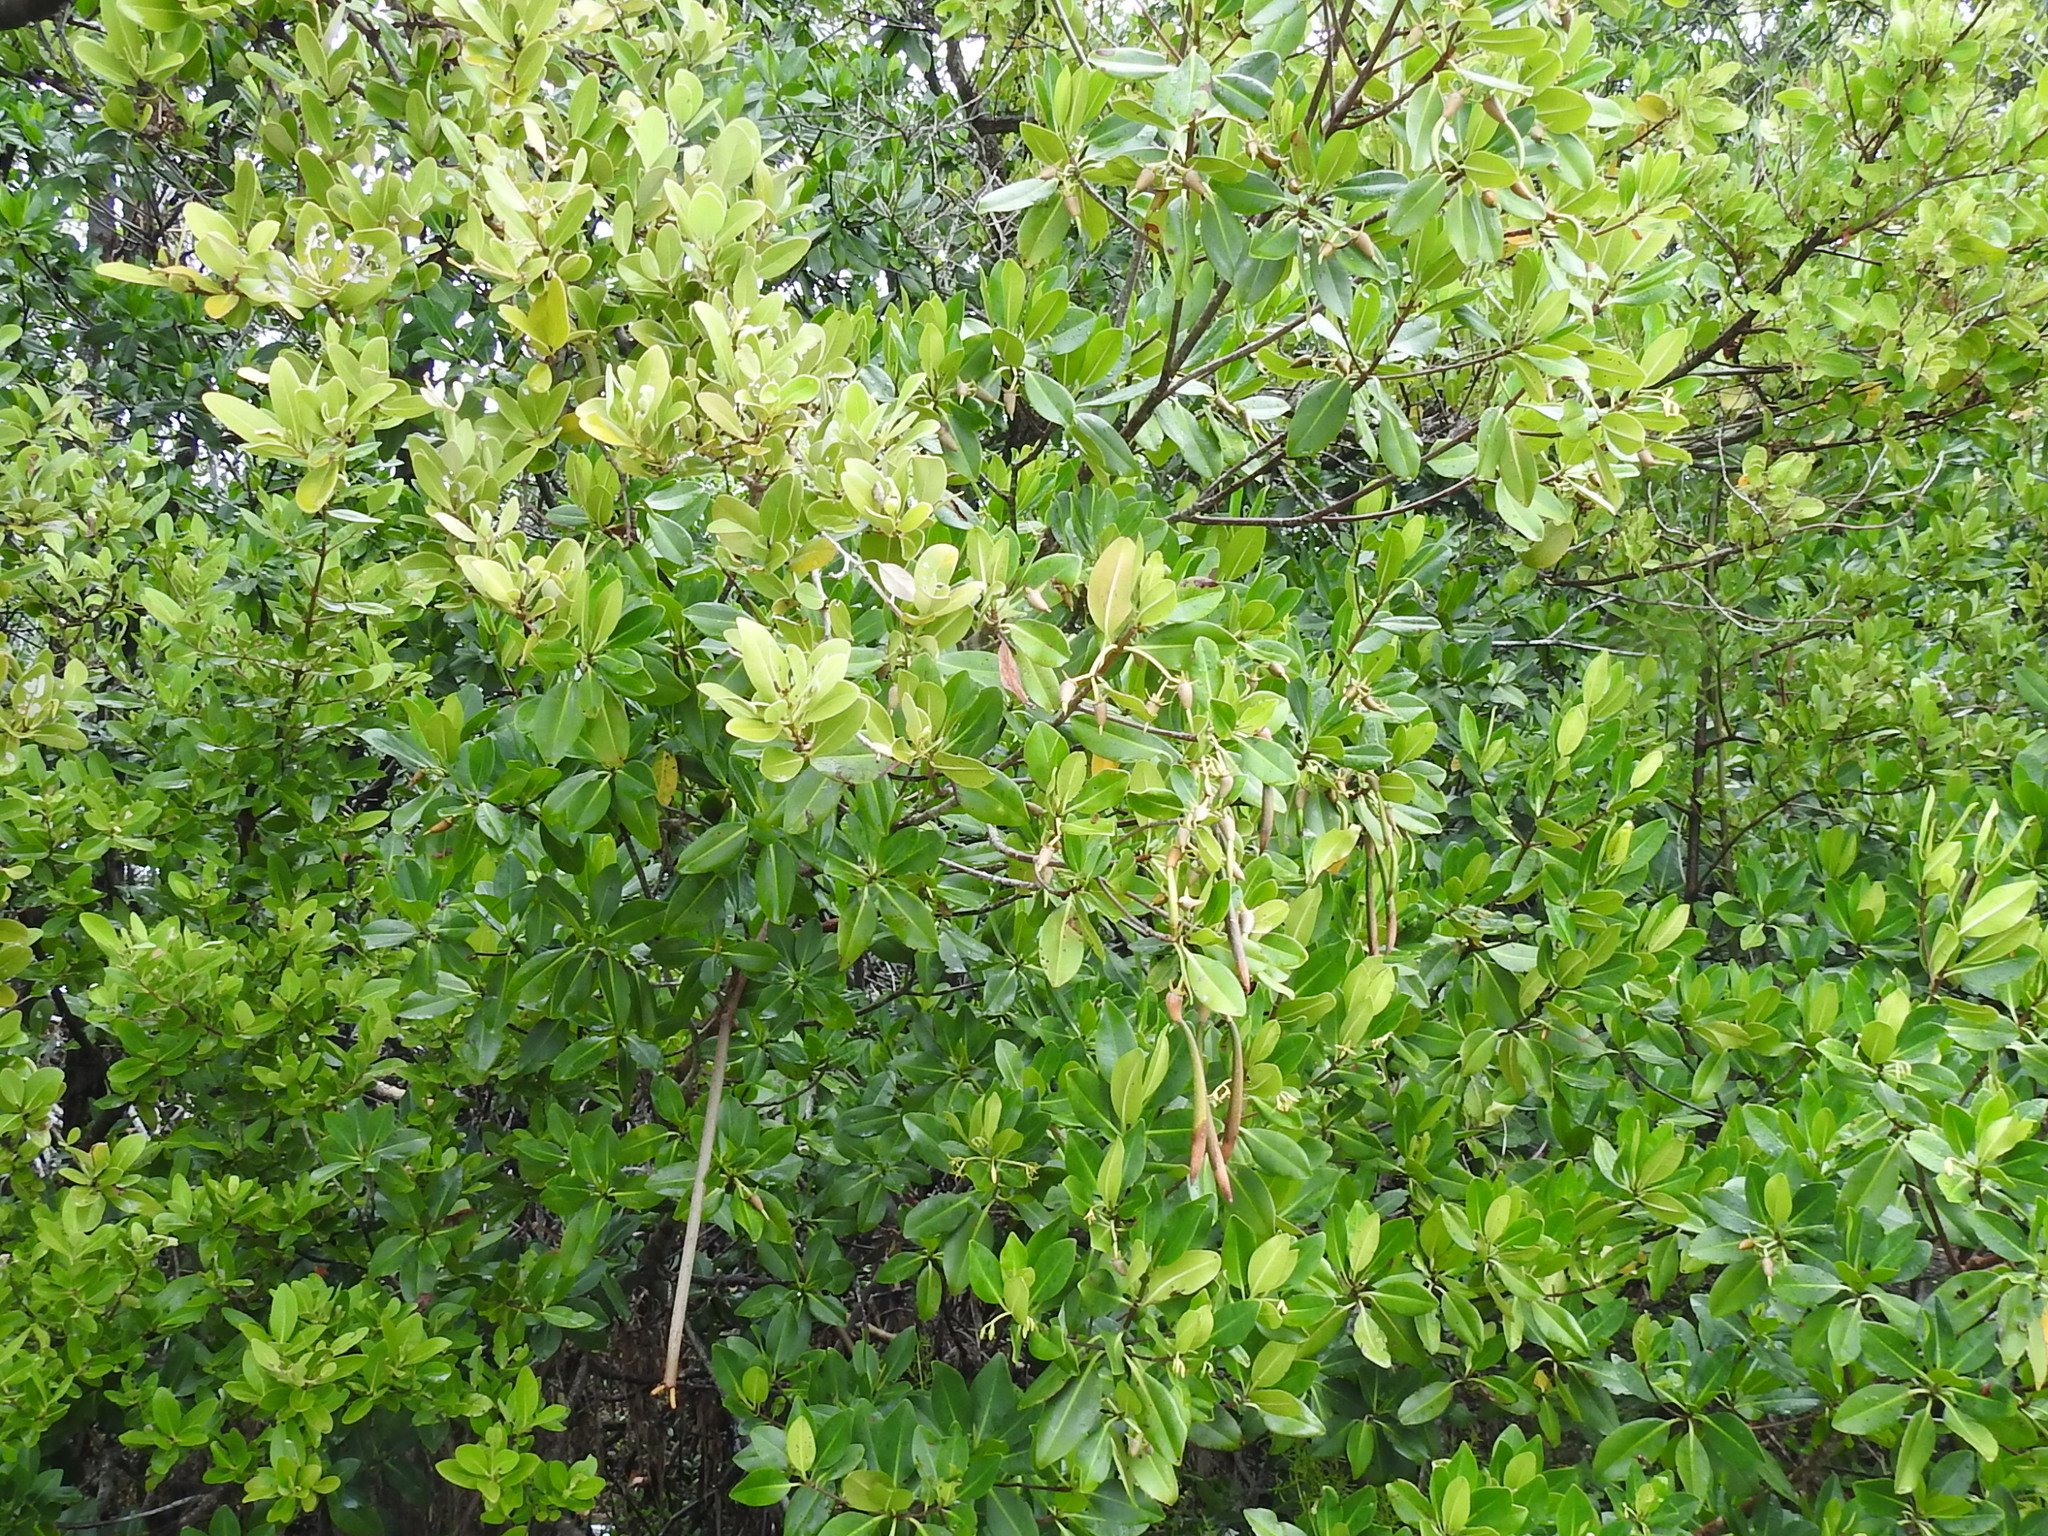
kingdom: Plantae
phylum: Tracheophyta
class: Magnoliopsida
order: Malpighiales
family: Rhizophoraceae
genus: Rhizophora
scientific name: Rhizophora mangle
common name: Red mangrove
